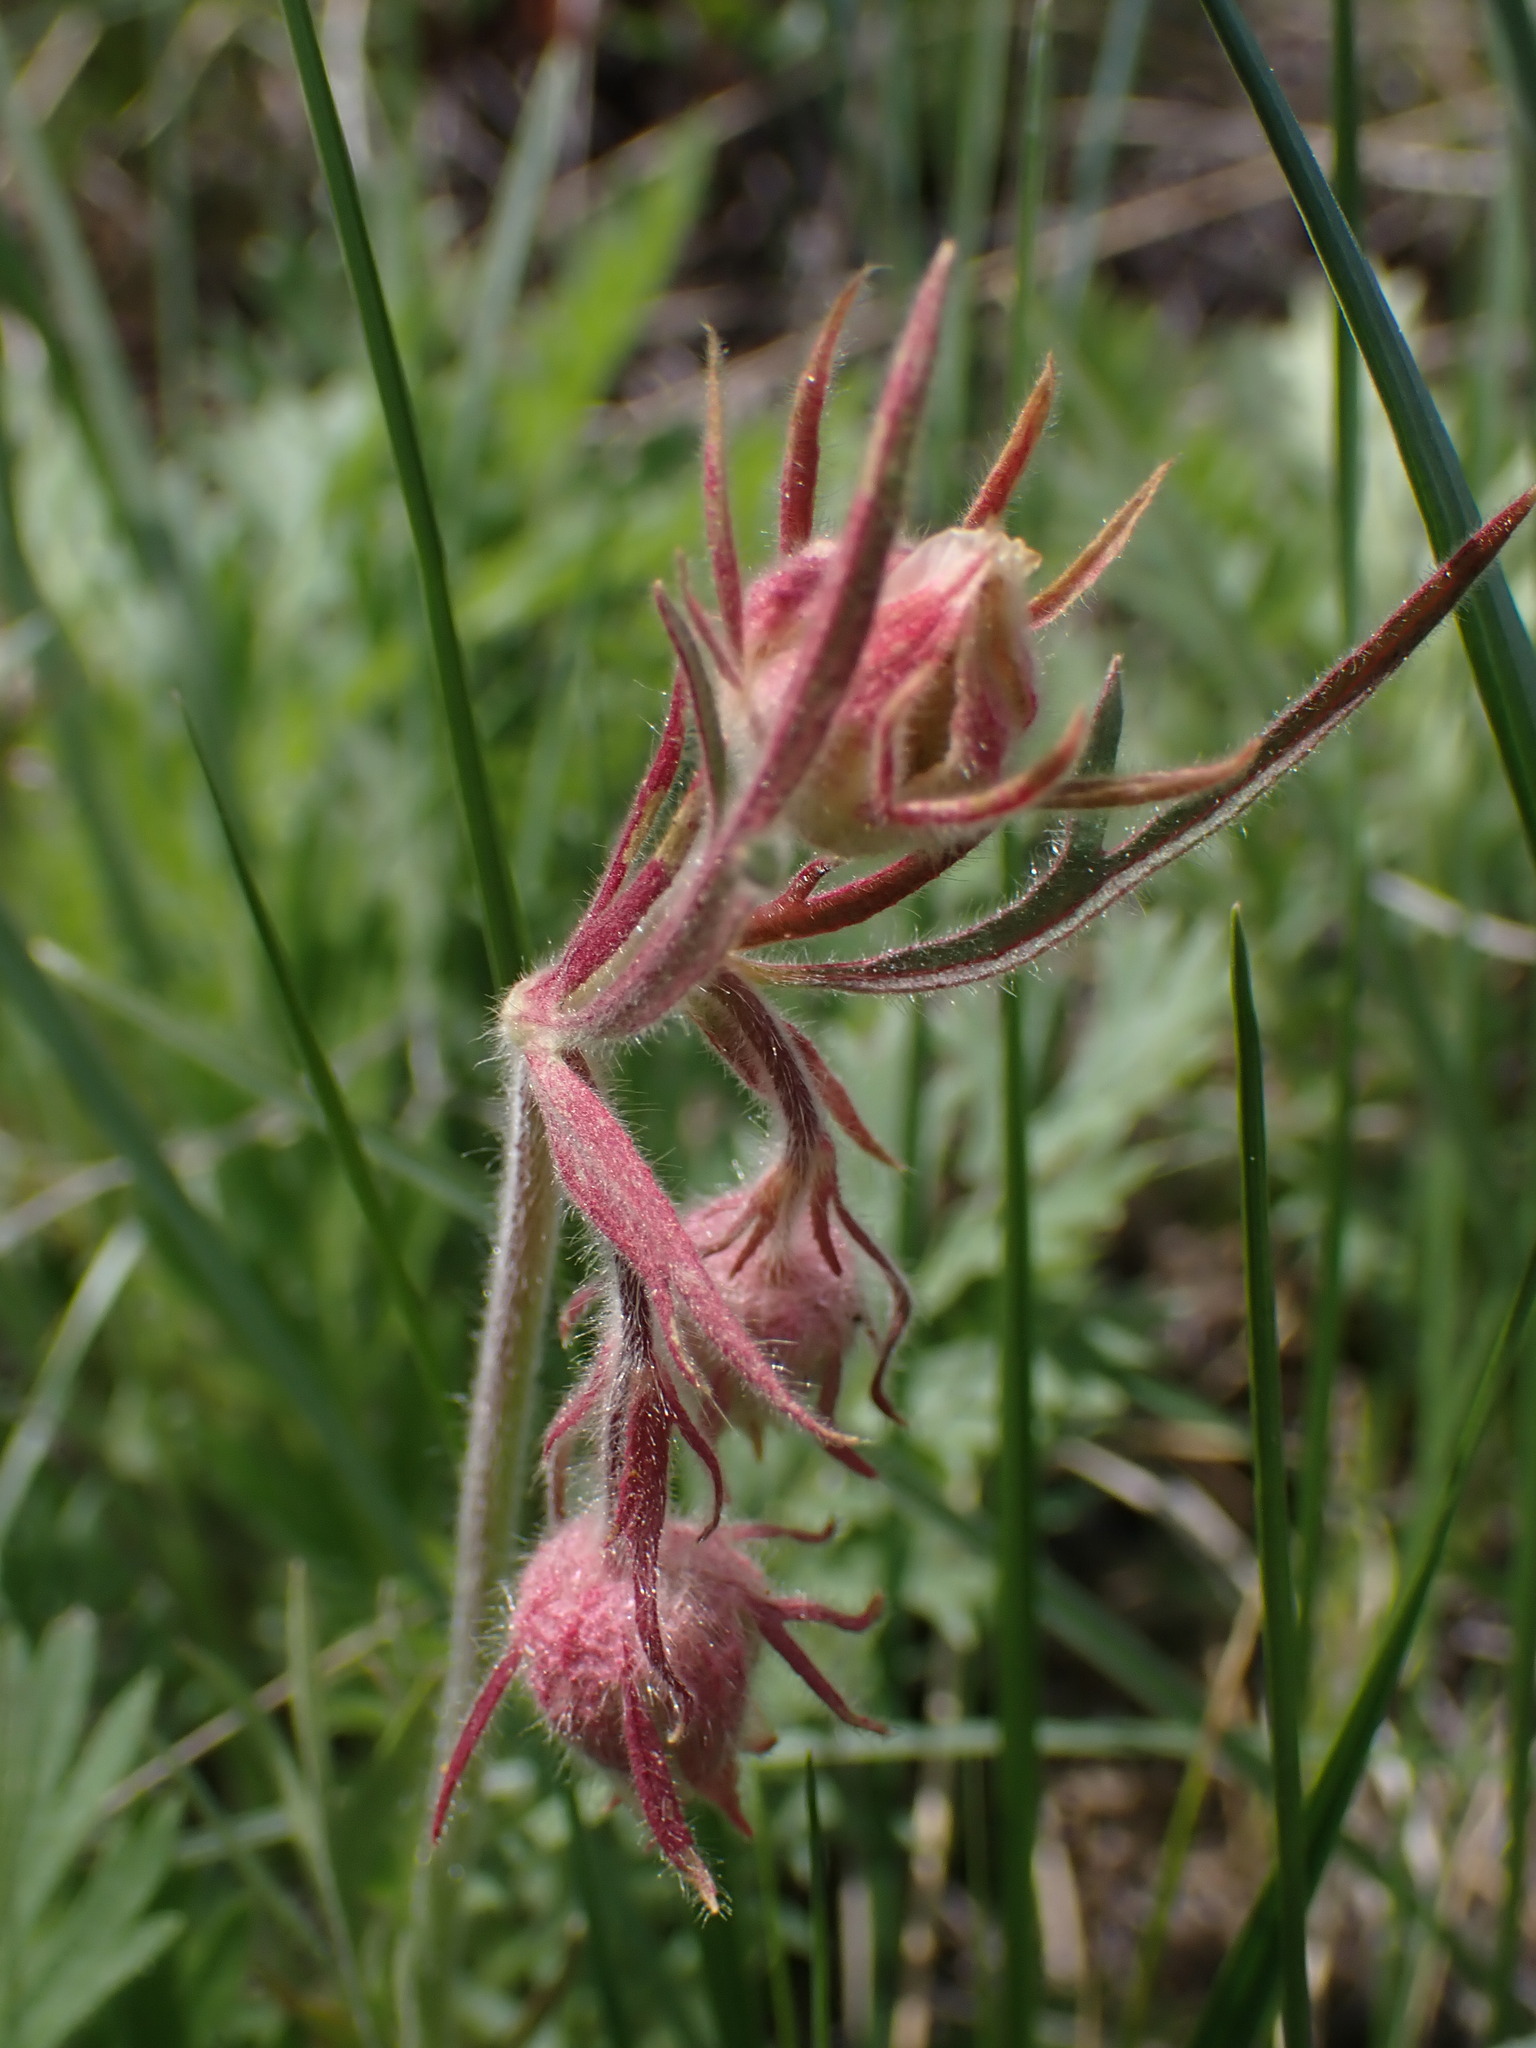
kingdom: Plantae
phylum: Tracheophyta
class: Magnoliopsida
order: Rosales
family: Rosaceae
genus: Geum
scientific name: Geum triflorum
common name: Old man's whiskers
